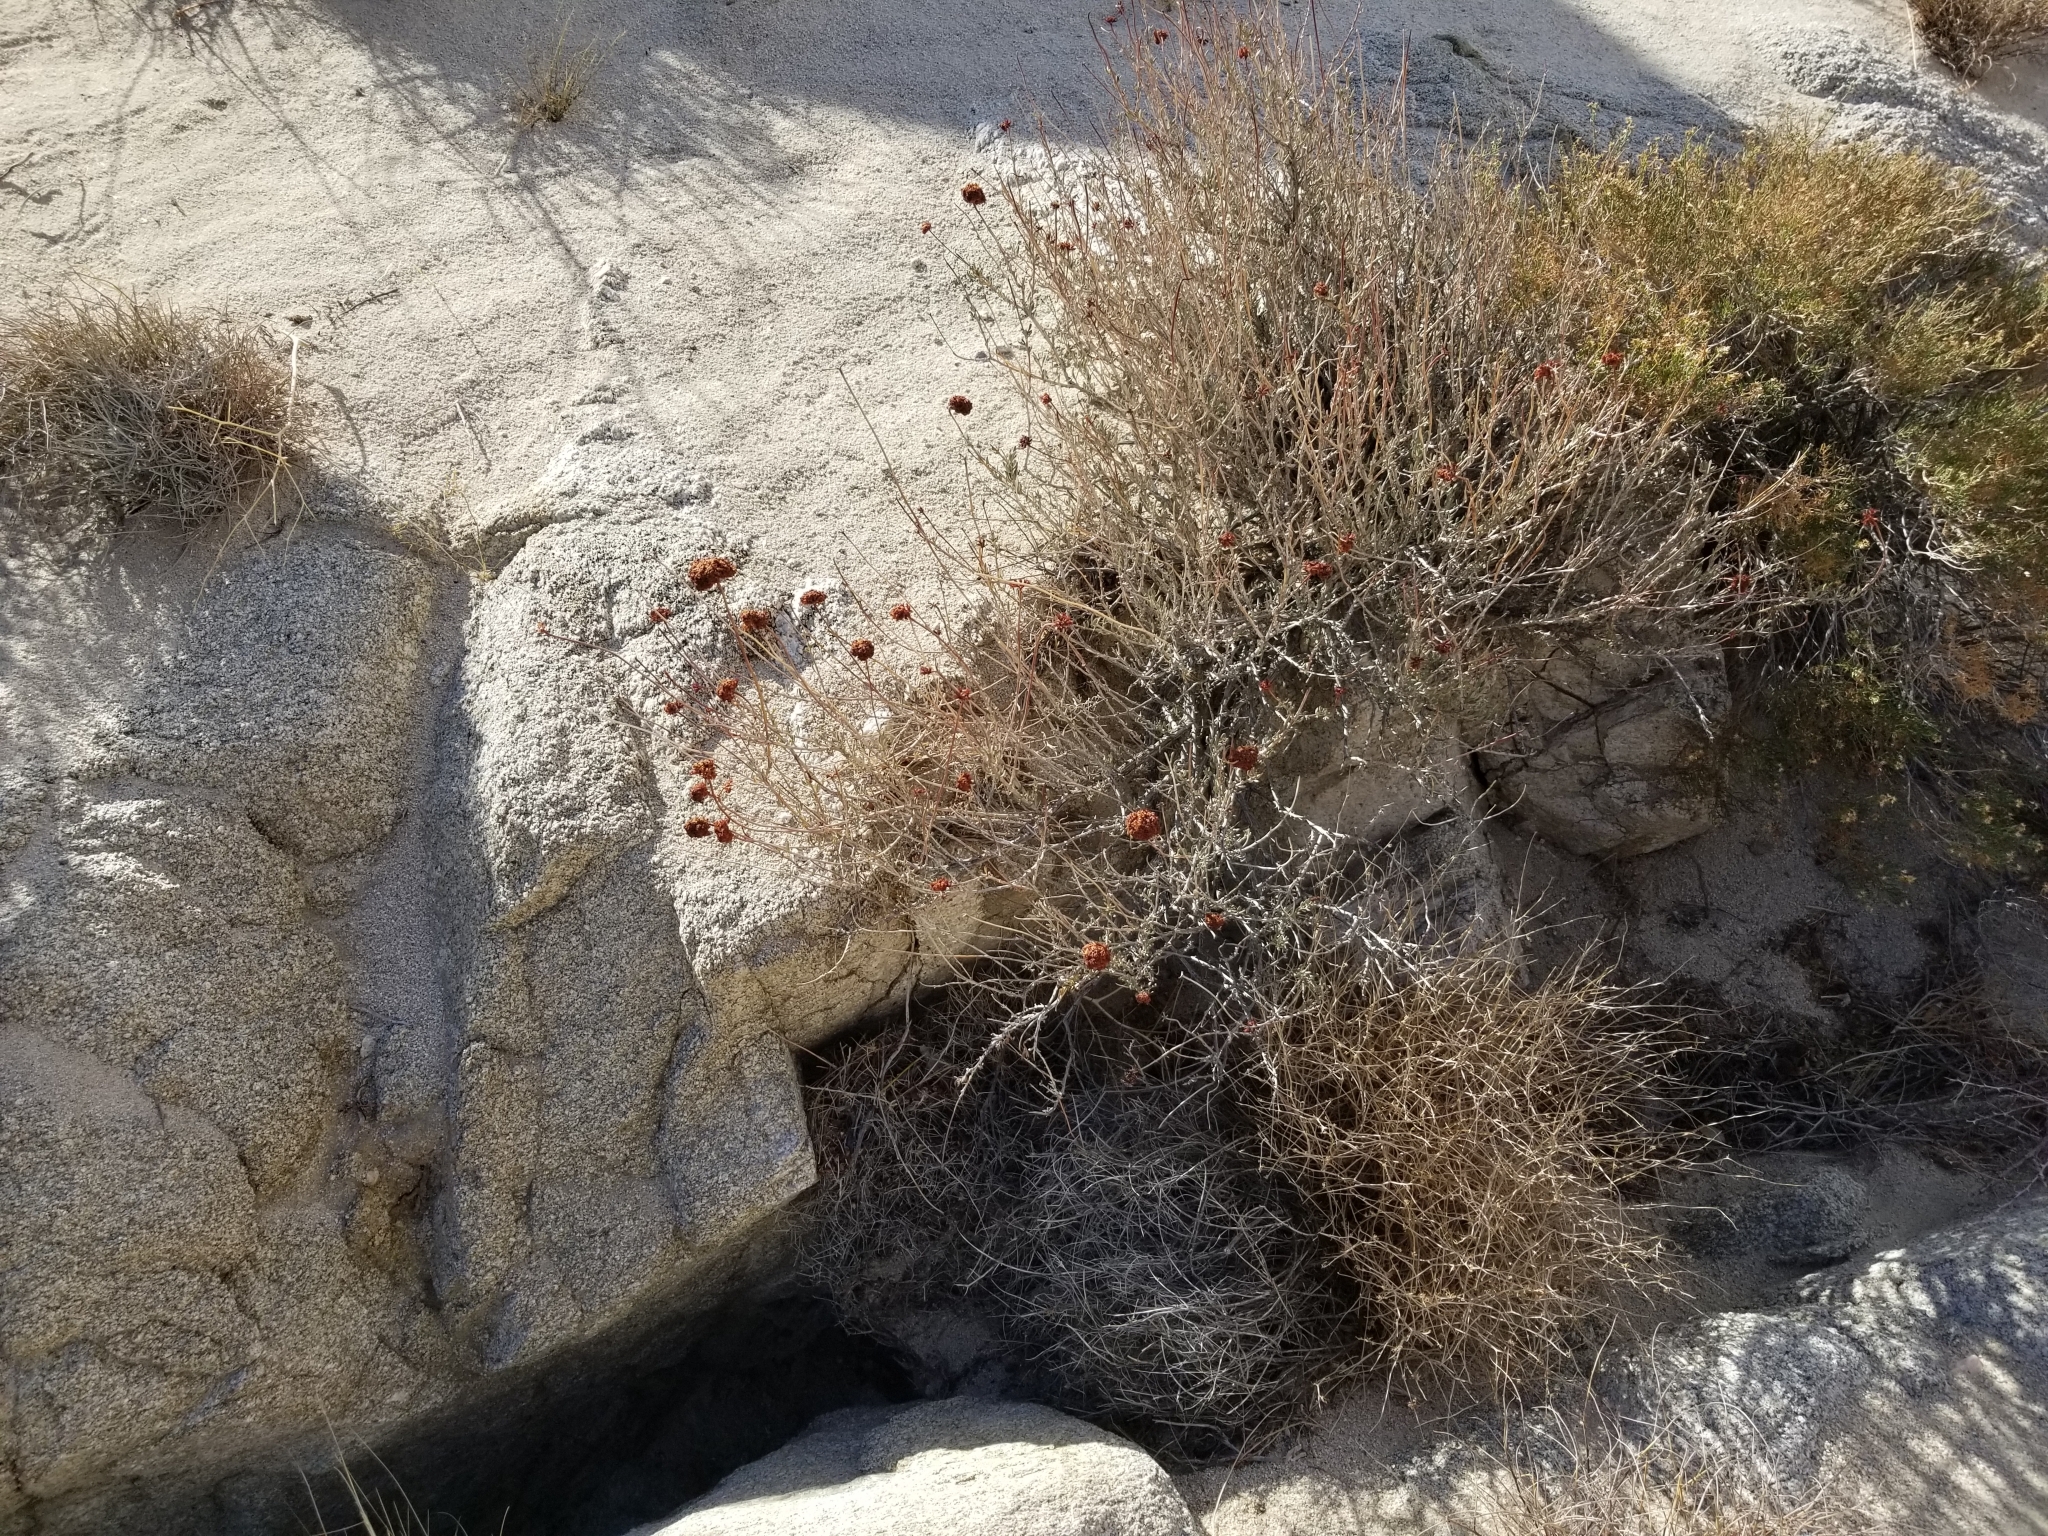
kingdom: Plantae
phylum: Tracheophyta
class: Magnoliopsida
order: Caryophyllales
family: Polygonaceae
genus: Eriogonum
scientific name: Eriogonum fasciculatum
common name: California wild buckwheat
